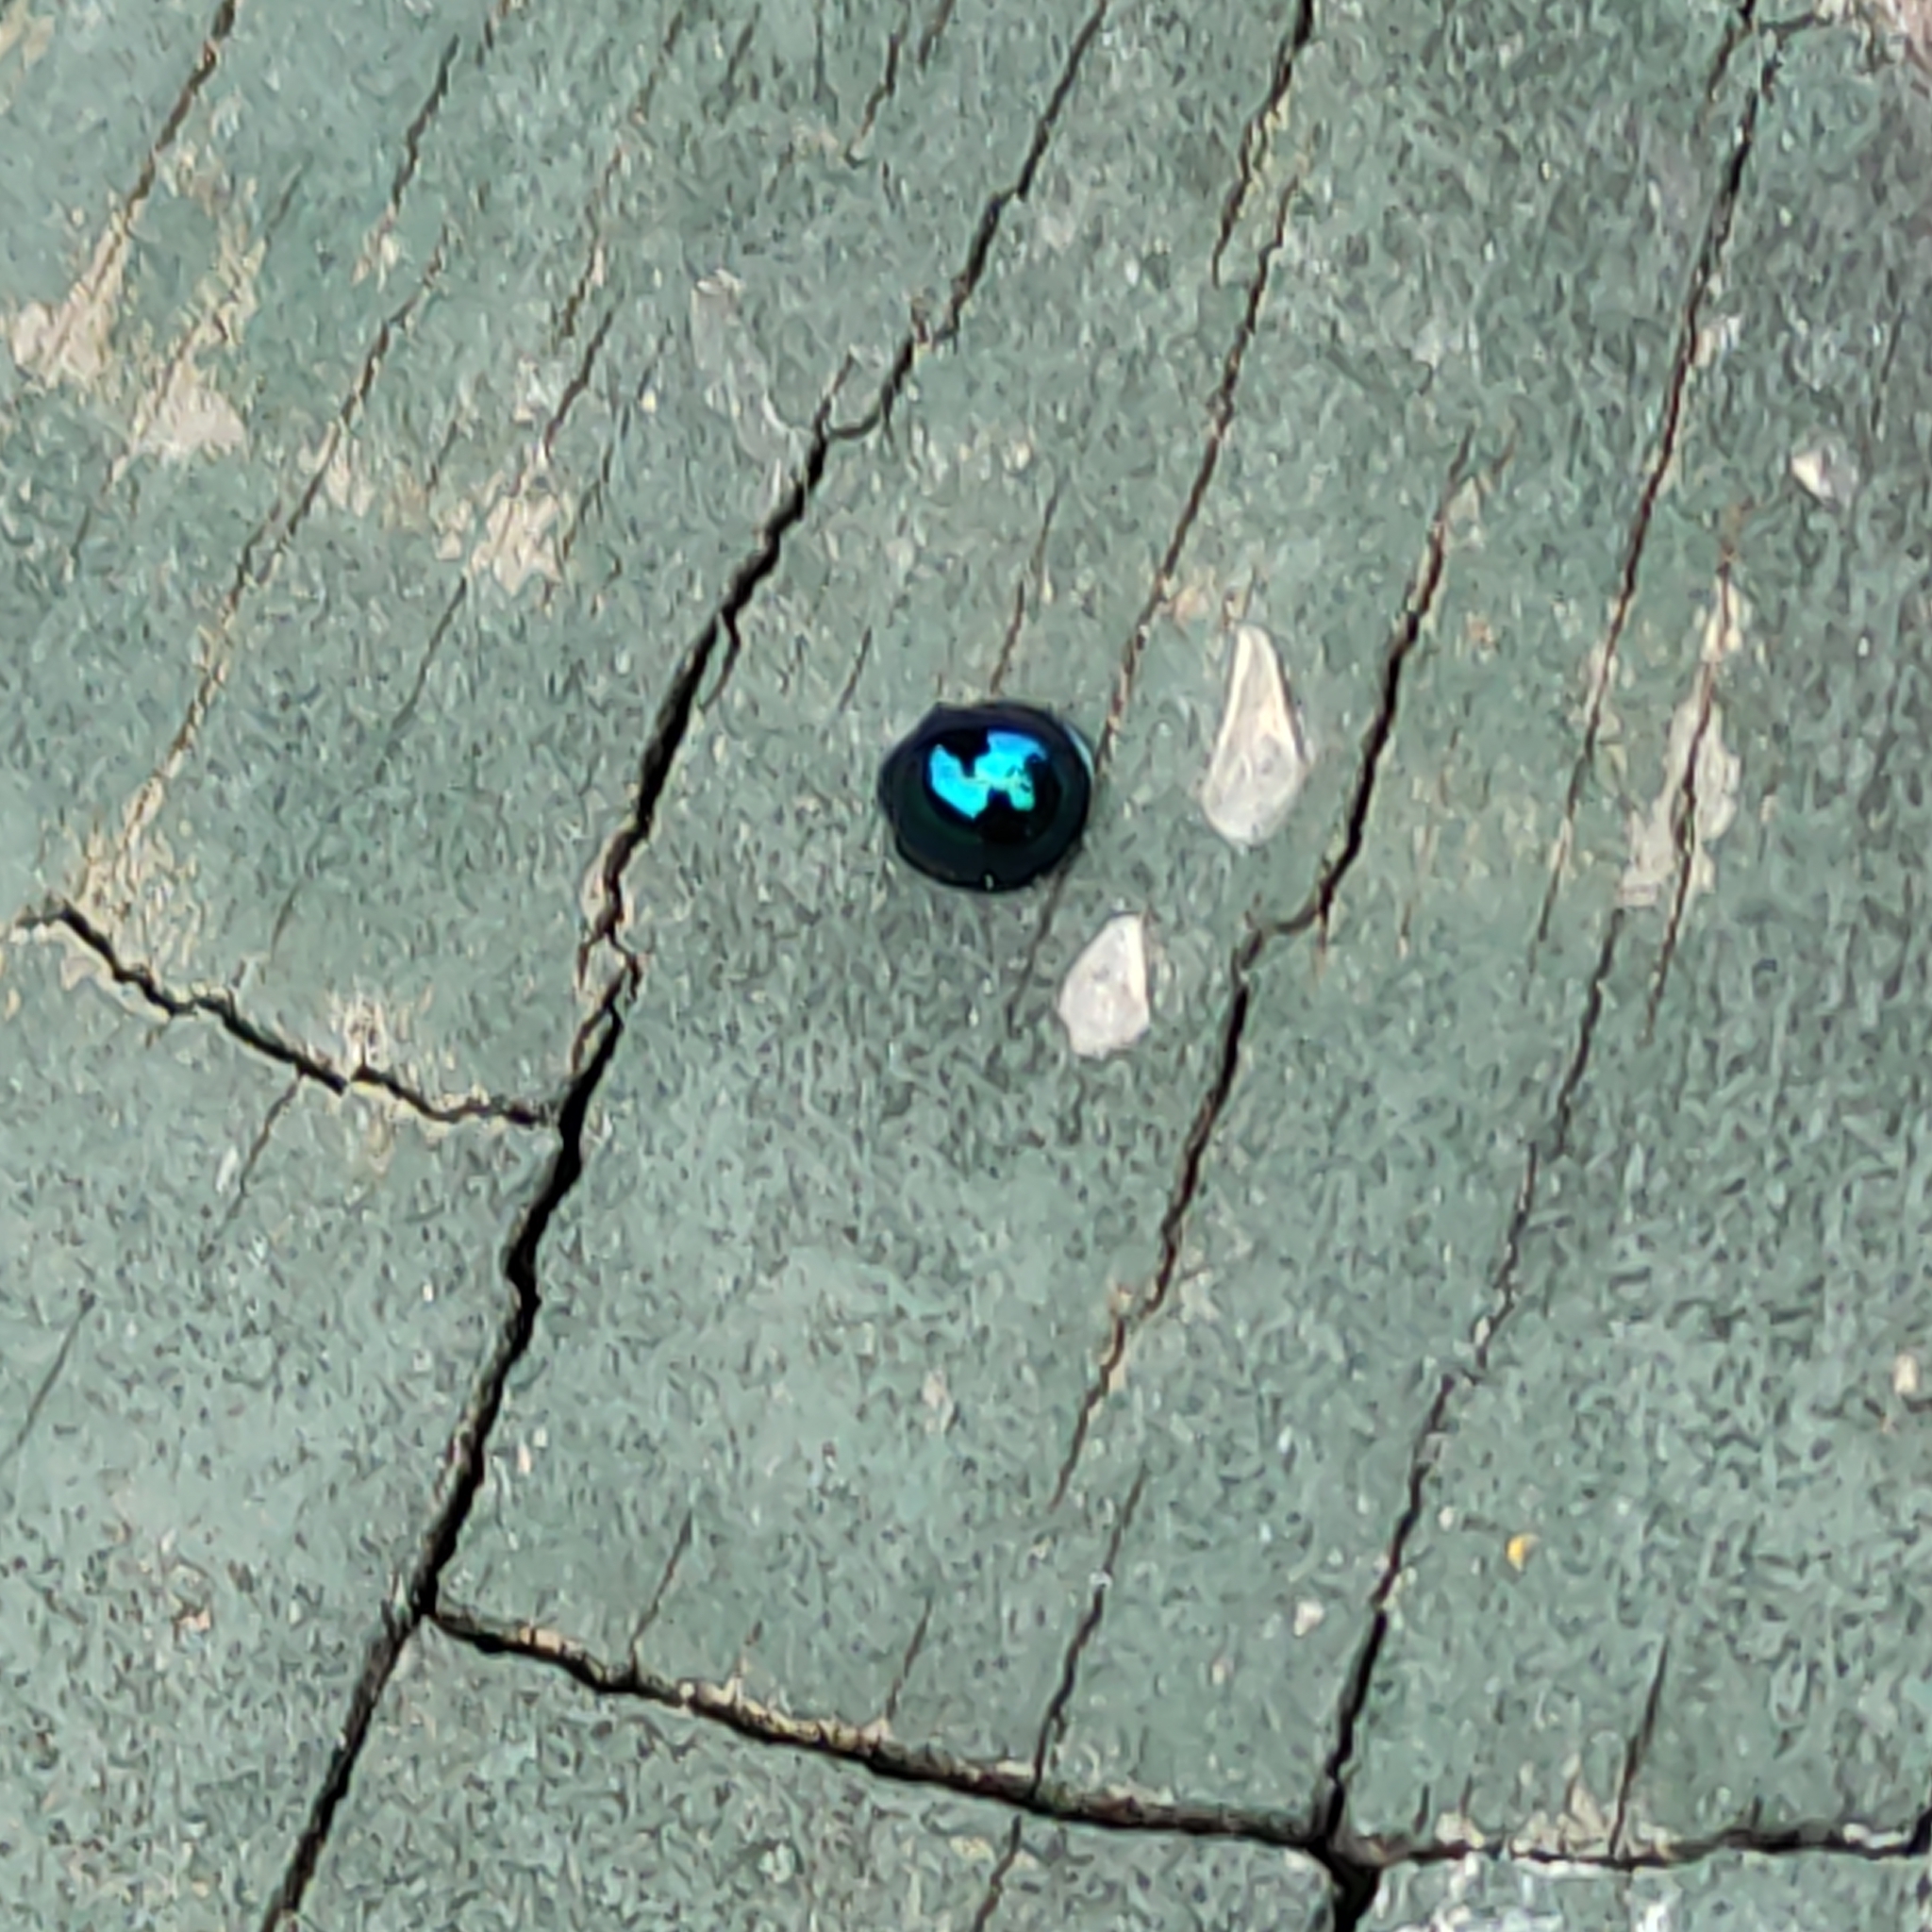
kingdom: Animalia
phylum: Arthropoda
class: Insecta
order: Coleoptera
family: Coccinellidae
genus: Halmus
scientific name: Halmus chalybeus
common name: Steel blue ladybird beetle
